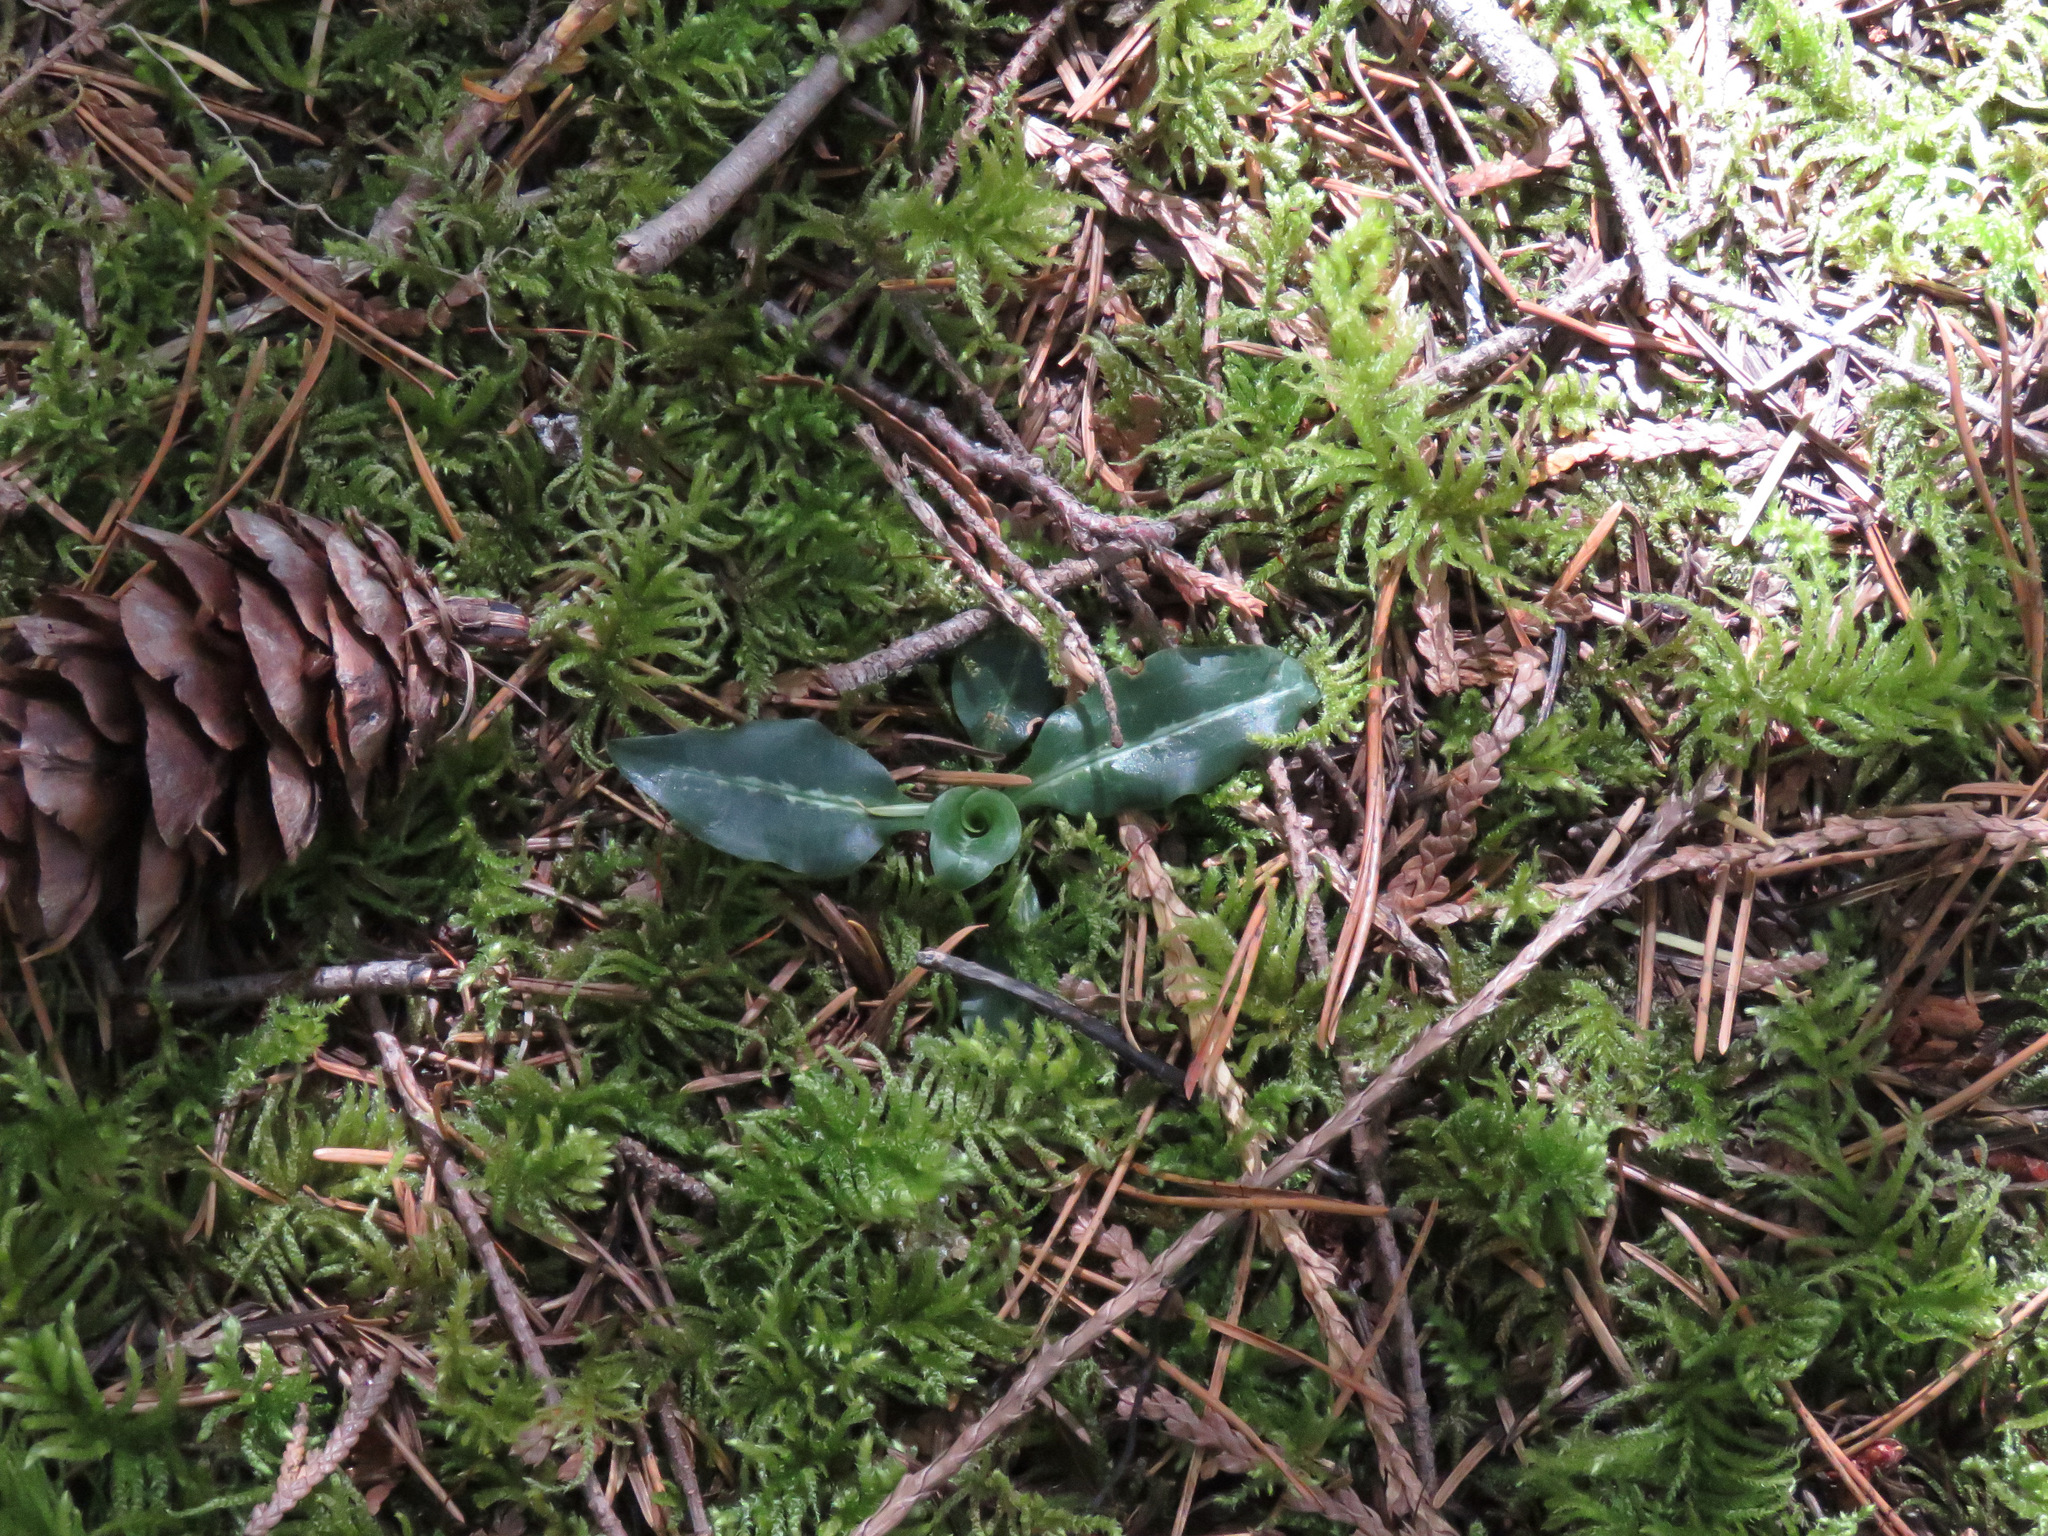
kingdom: Plantae
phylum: Tracheophyta
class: Liliopsida
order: Asparagales
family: Orchidaceae
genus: Goodyera
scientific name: Goodyera oblongifolia
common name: Giant rattlesnake-plantain
